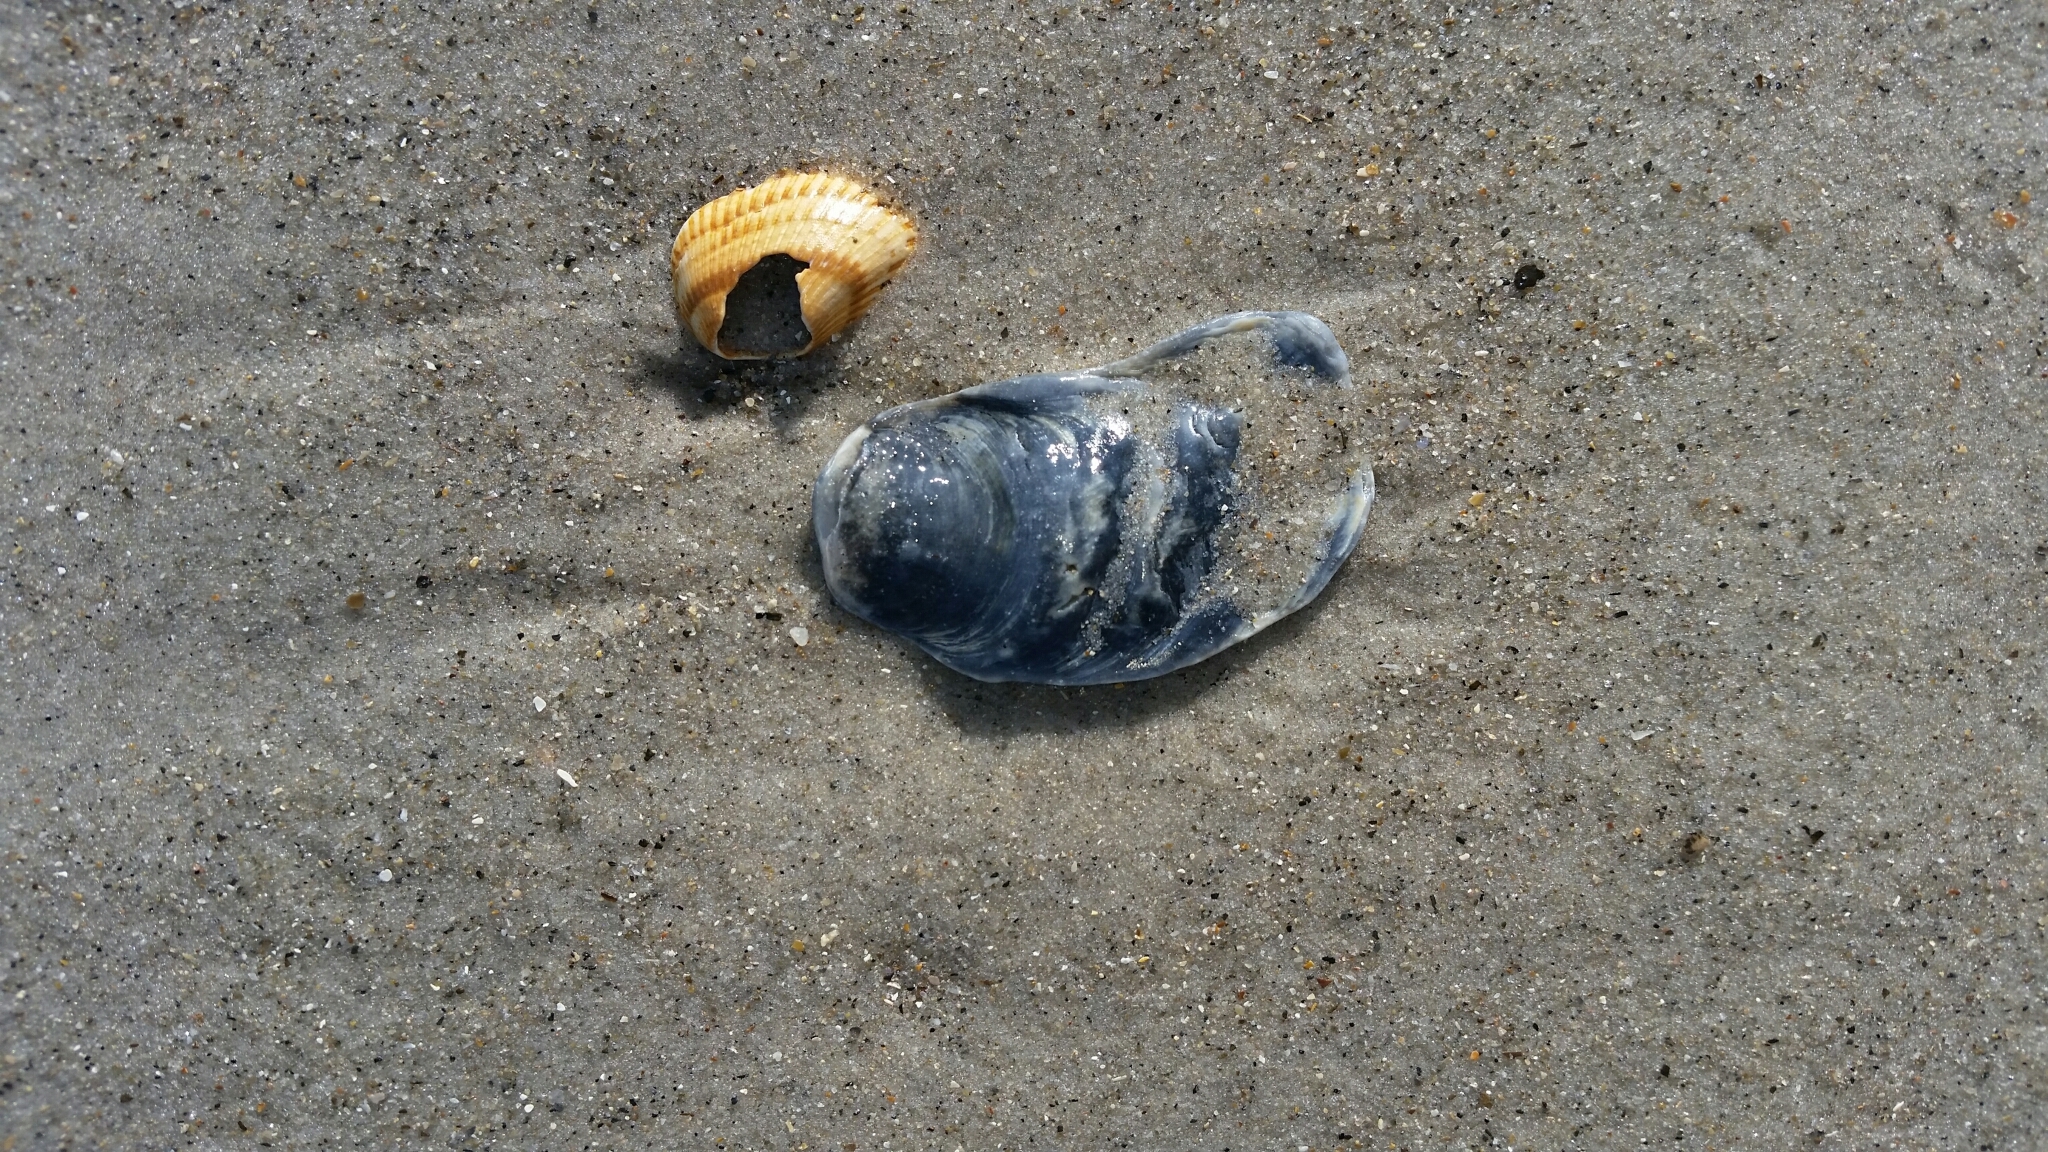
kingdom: Animalia
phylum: Mollusca
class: Bivalvia
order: Ostreida
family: Ostreidae
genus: Crassostrea
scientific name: Crassostrea virginica
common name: American oyster
